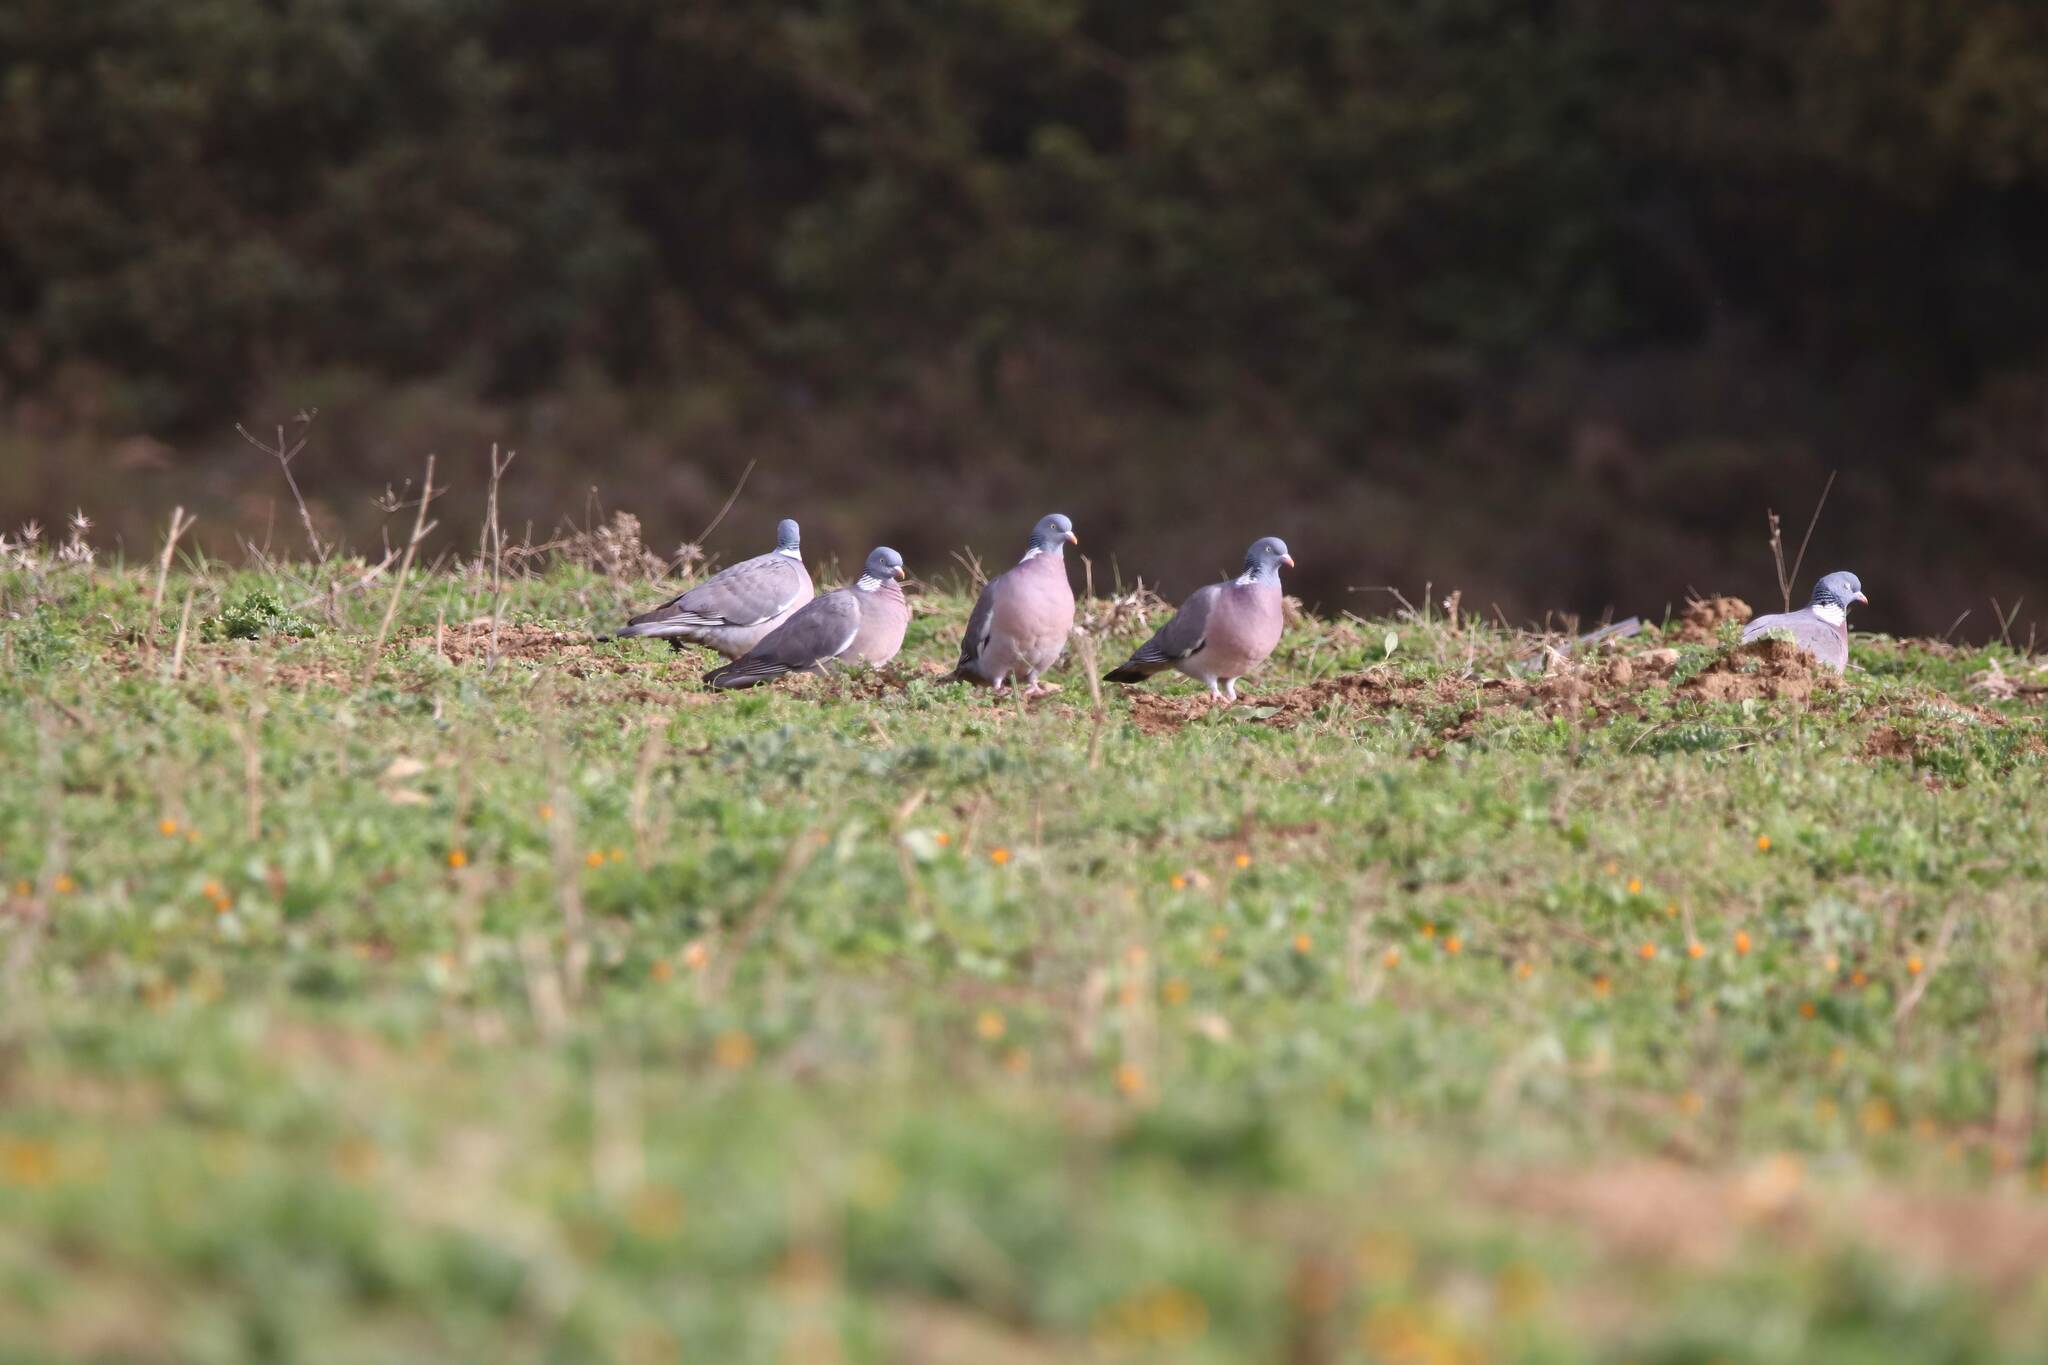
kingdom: Animalia
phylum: Chordata
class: Aves
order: Columbiformes
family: Columbidae
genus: Columba
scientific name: Columba palumbus
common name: Common wood pigeon
